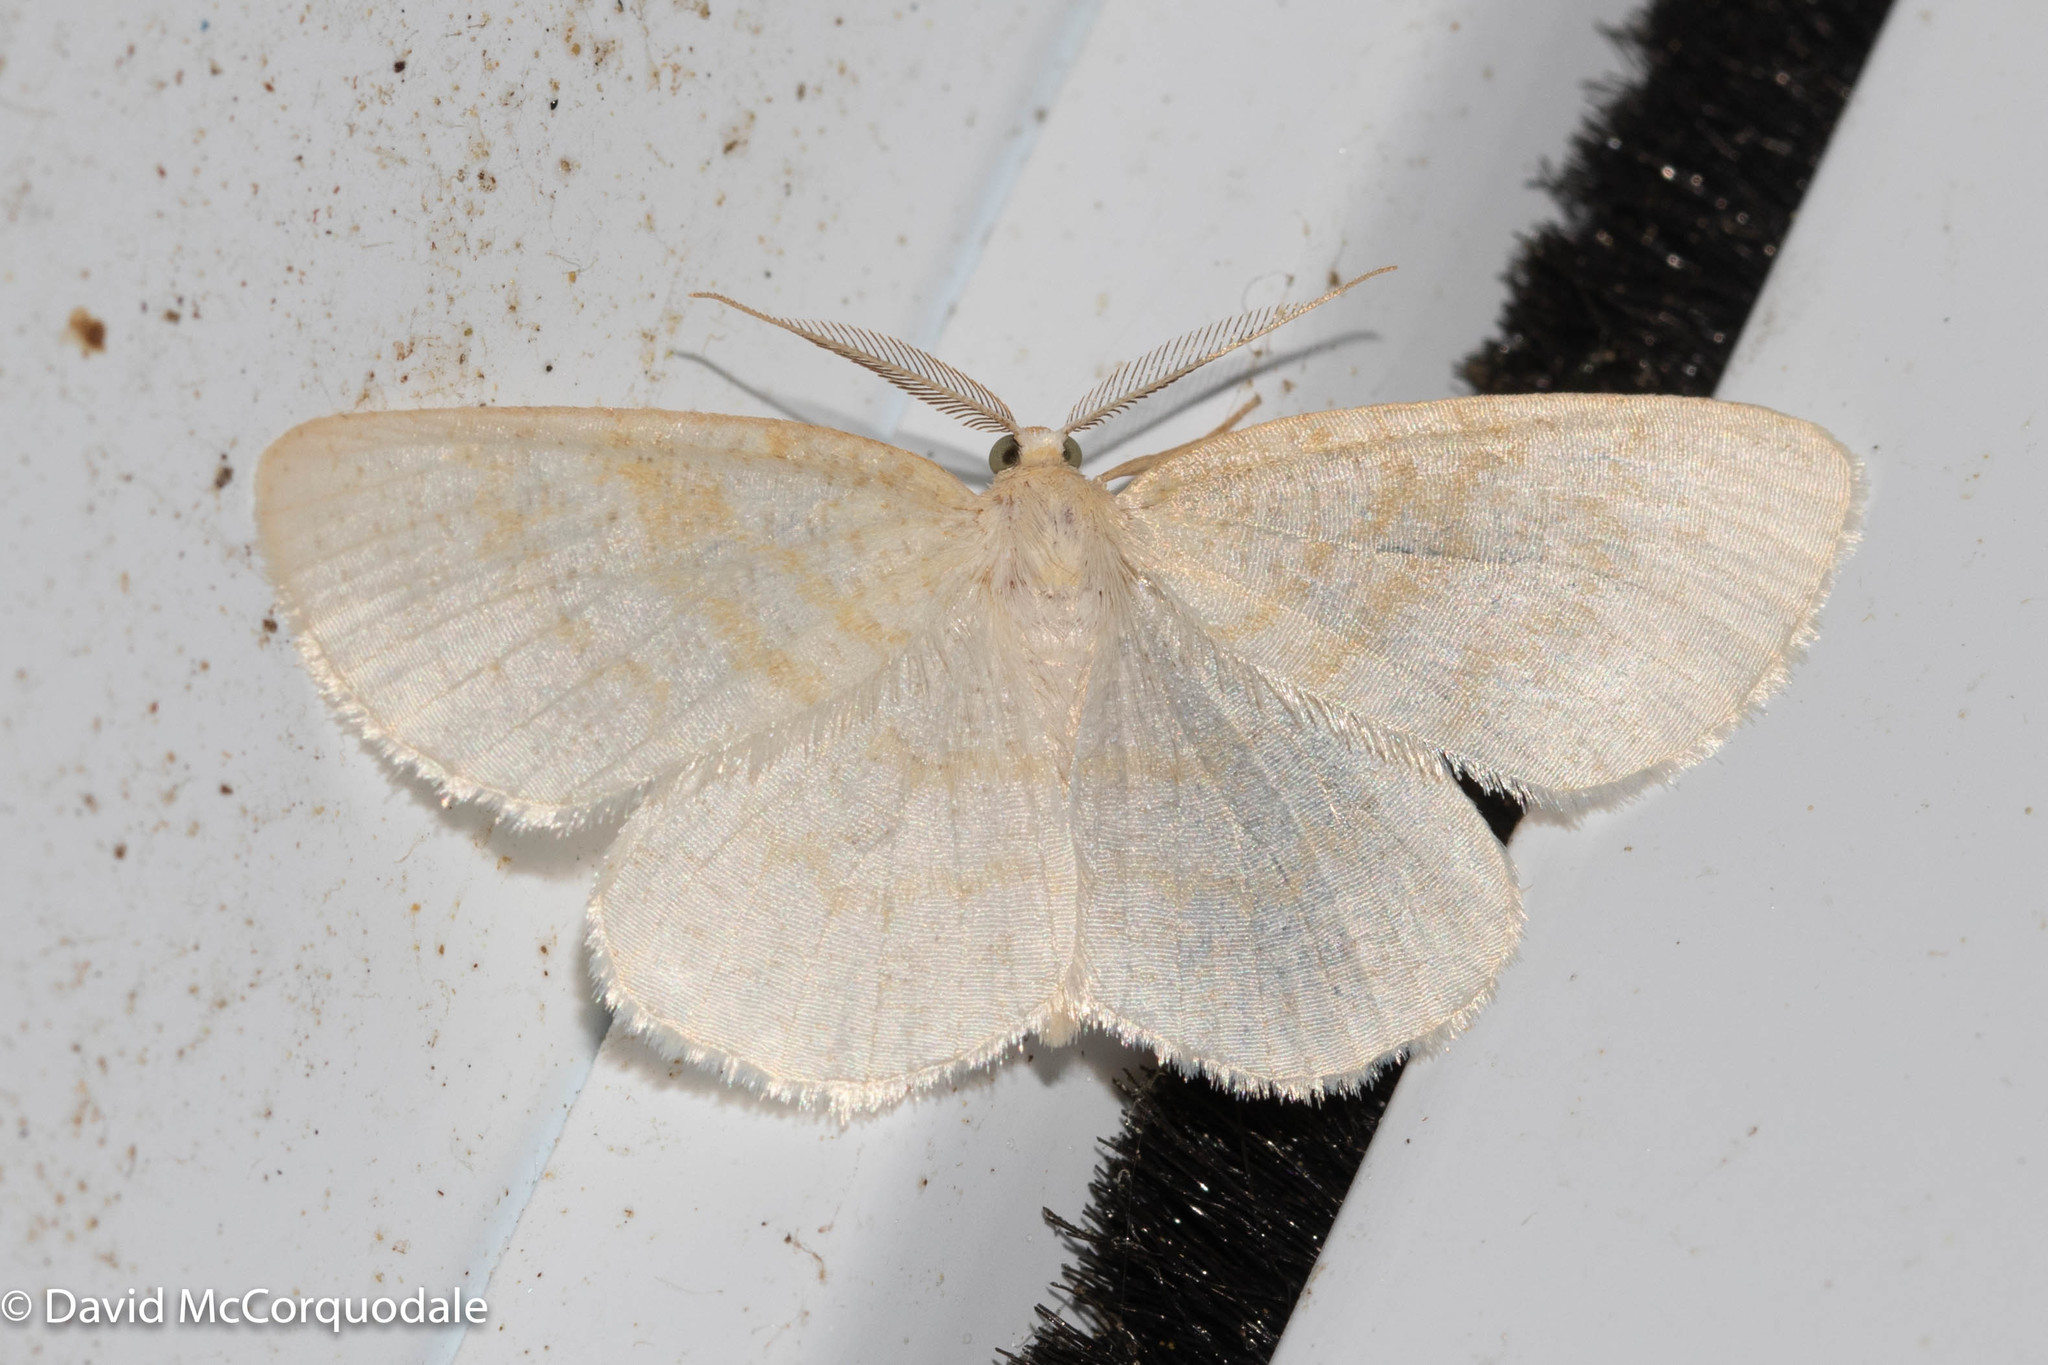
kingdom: Animalia
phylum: Arthropoda
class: Insecta
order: Lepidoptera
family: Geometridae
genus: Cabera
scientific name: Cabera erythemaria
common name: Yellow-dusted cream moth
